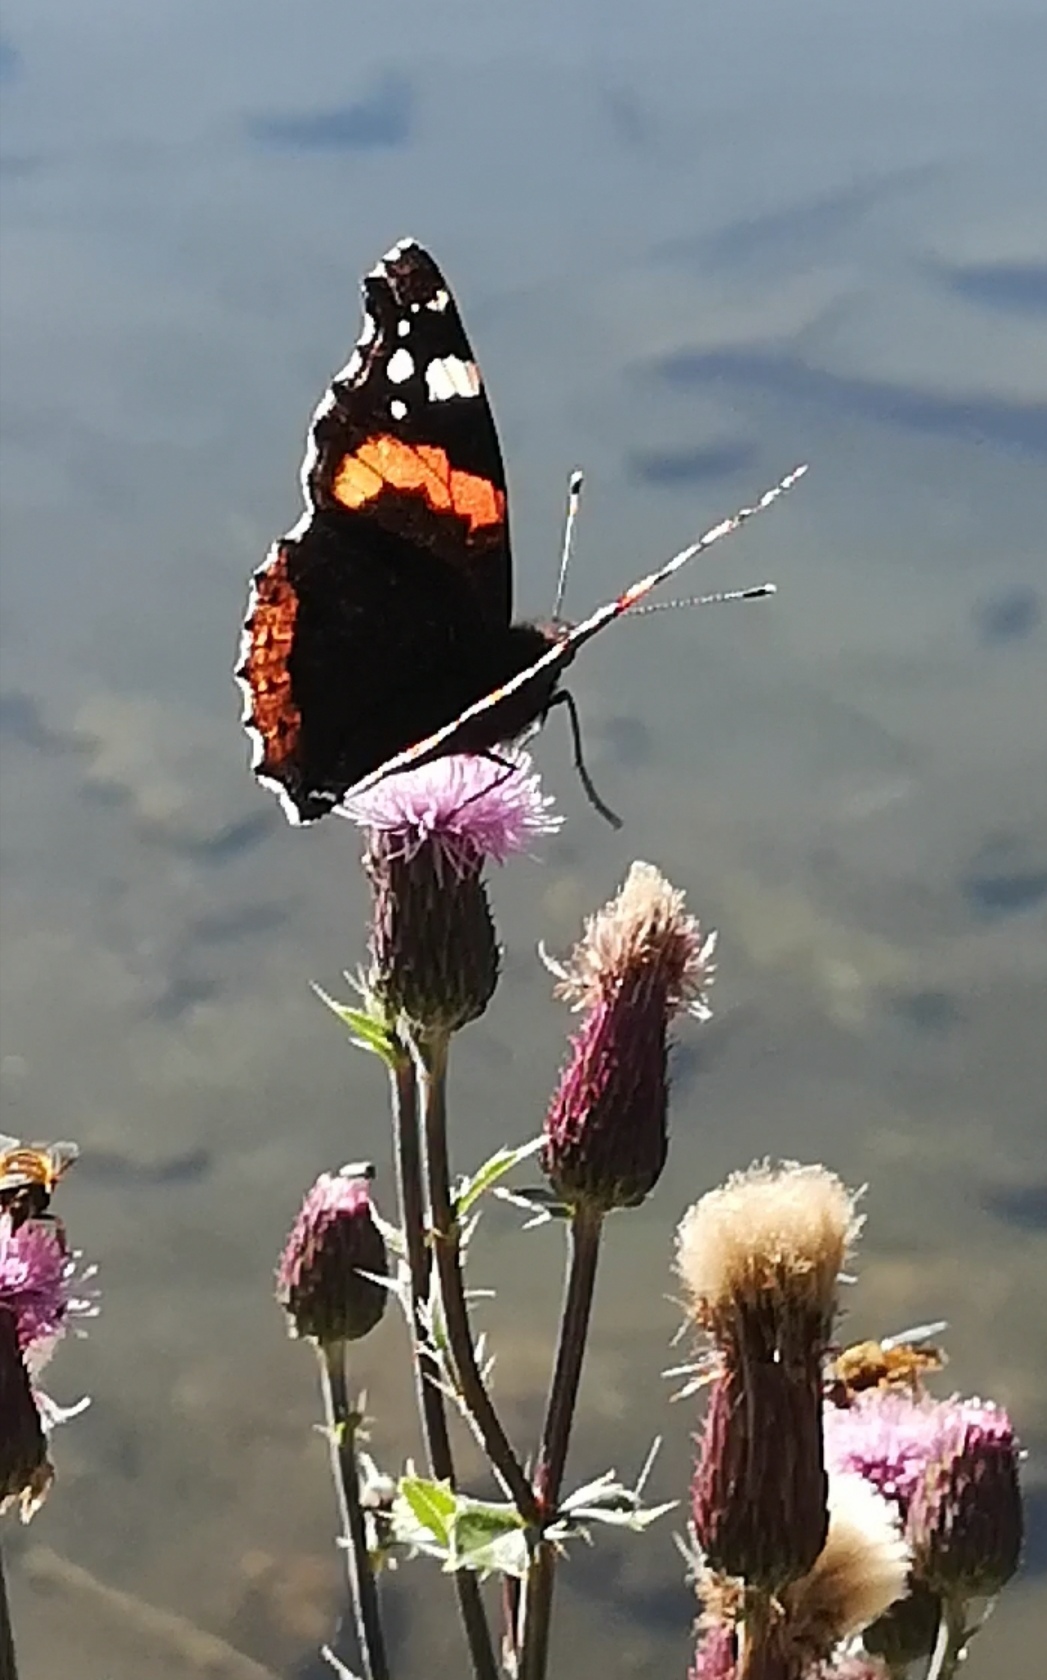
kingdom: Animalia
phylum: Arthropoda
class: Insecta
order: Lepidoptera
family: Nymphalidae
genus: Vanessa
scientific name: Vanessa atalanta
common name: Red admiral
